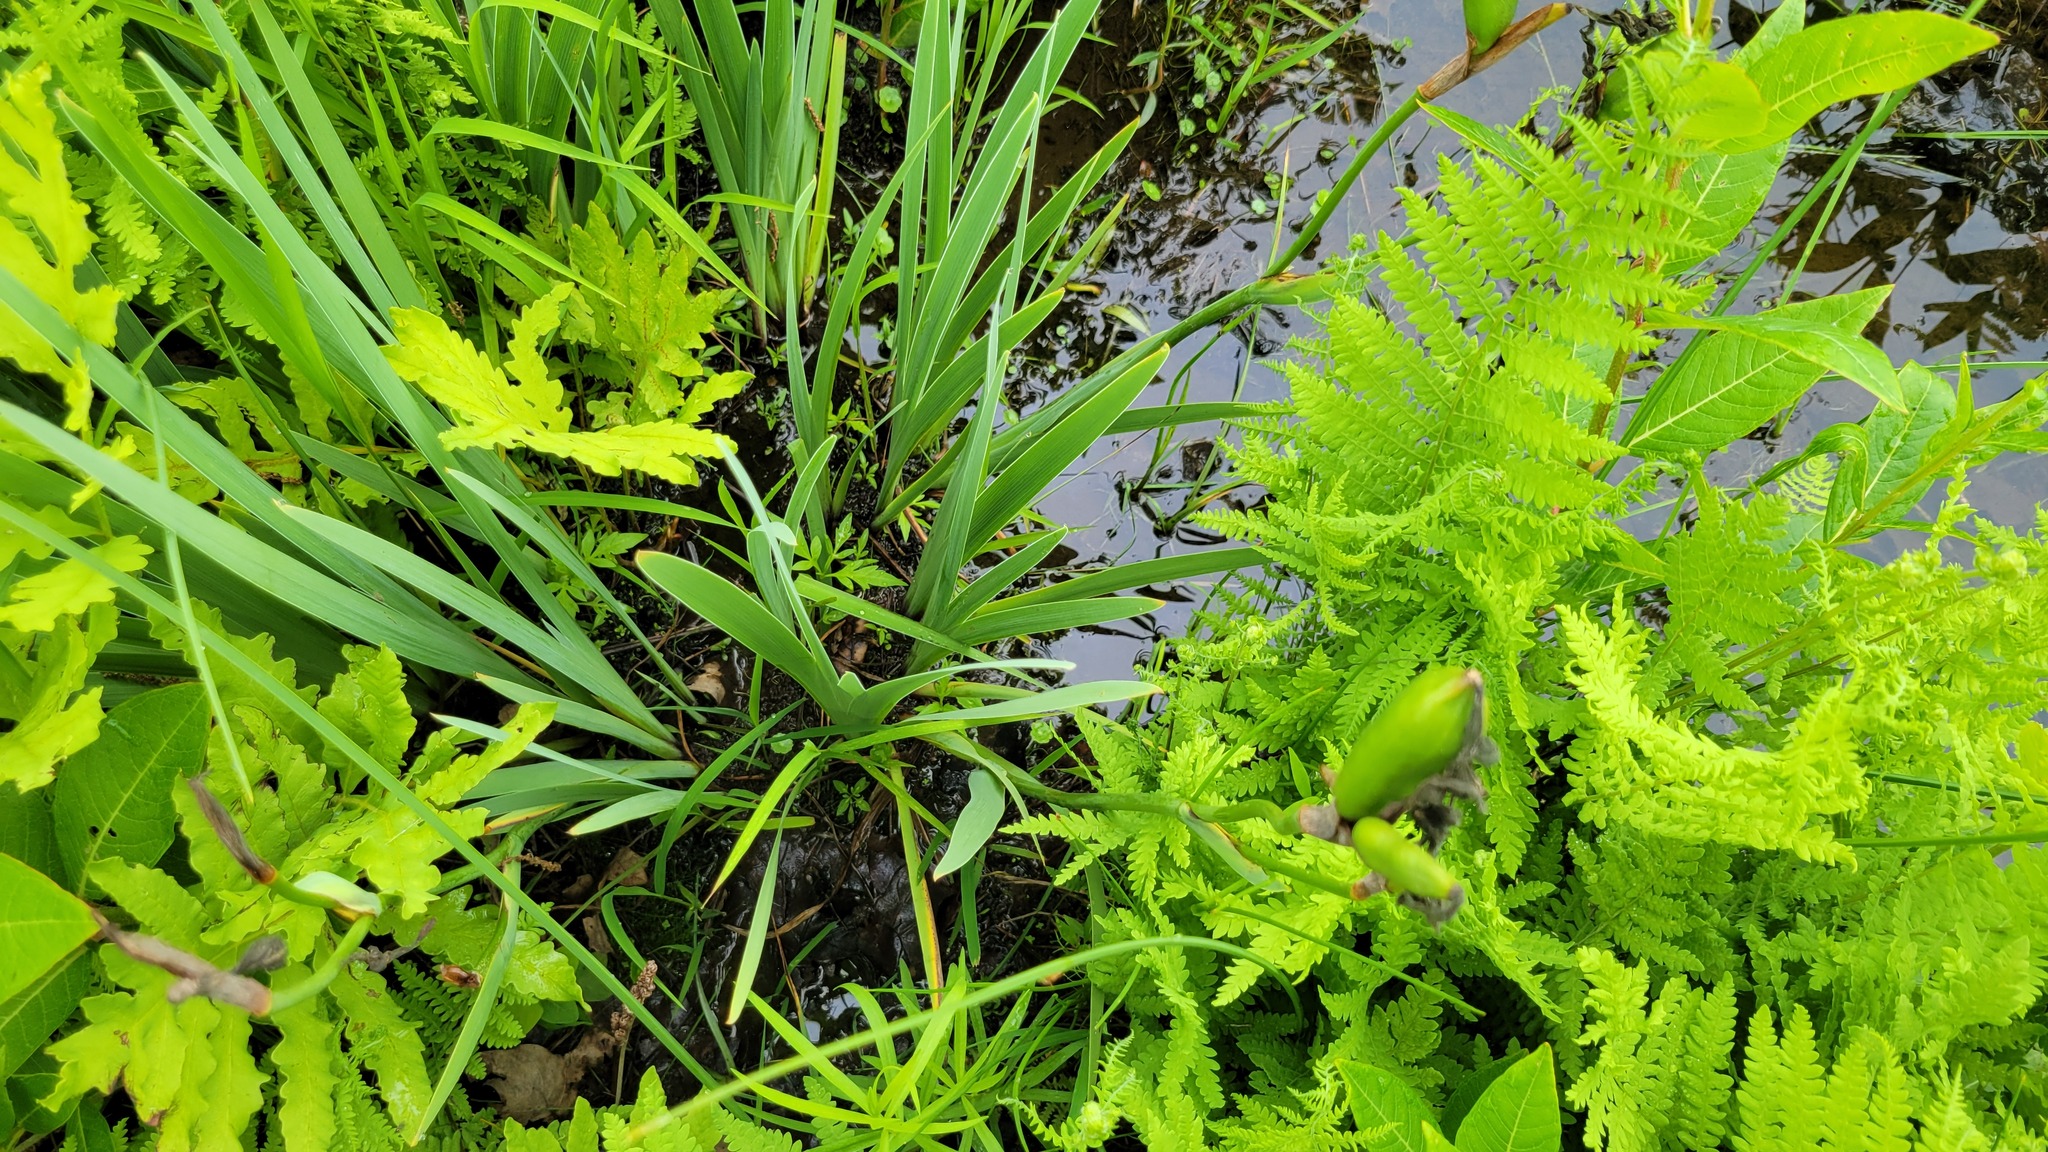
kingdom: Plantae
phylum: Tracheophyta
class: Liliopsida
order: Asparagales
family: Iridaceae
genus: Iris
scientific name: Iris versicolor
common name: Purple iris
